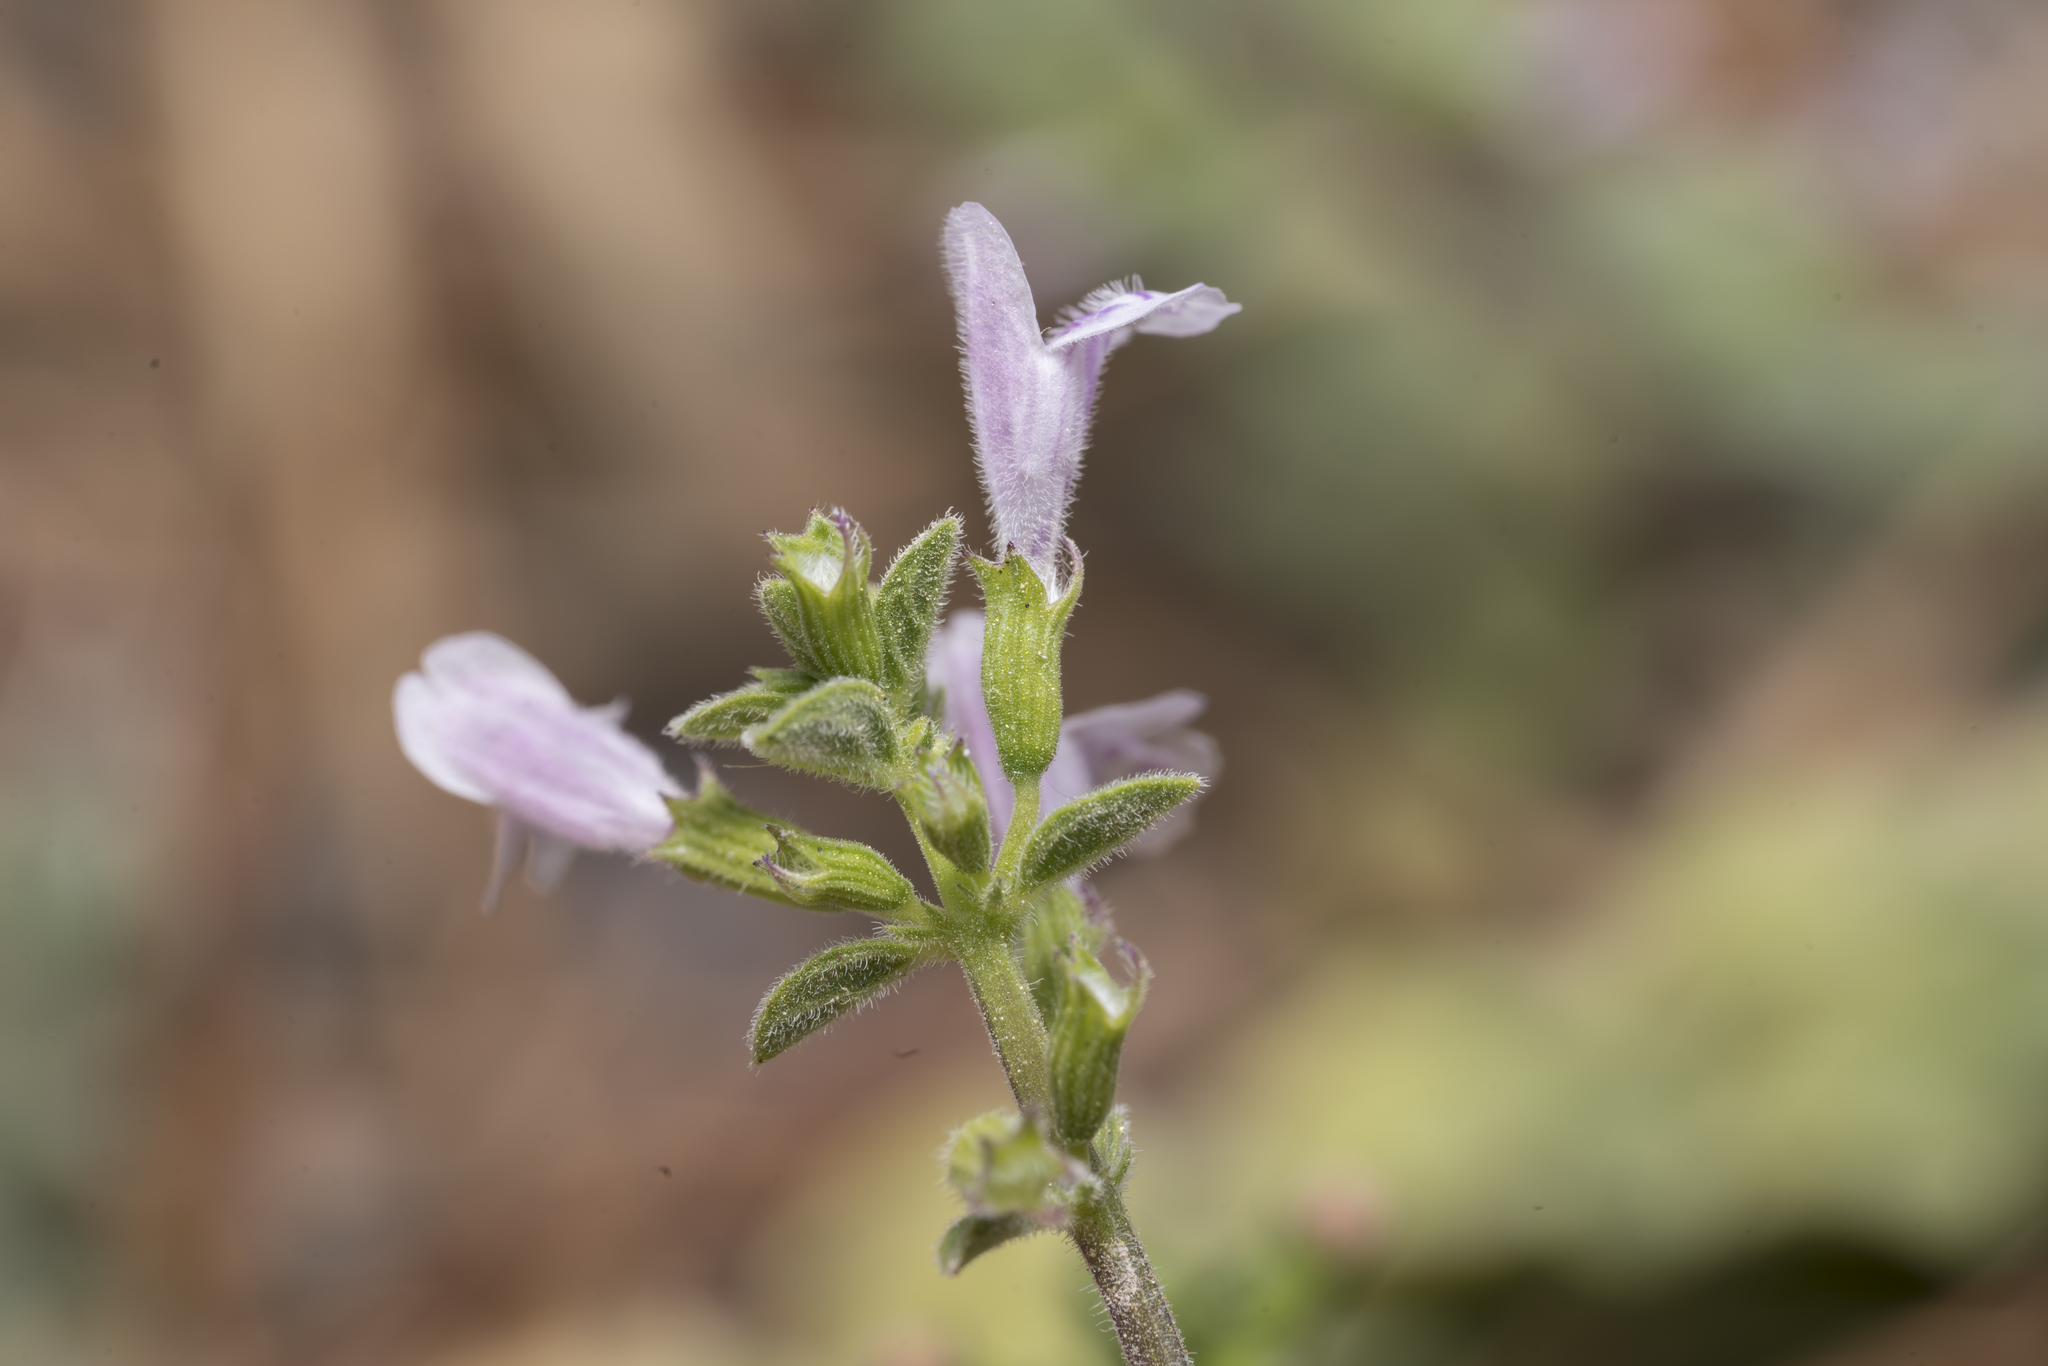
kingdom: Plantae
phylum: Tracheophyta
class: Magnoliopsida
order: Lamiales
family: Lamiaceae
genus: Clinopodium
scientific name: Clinopodium brevifolium
